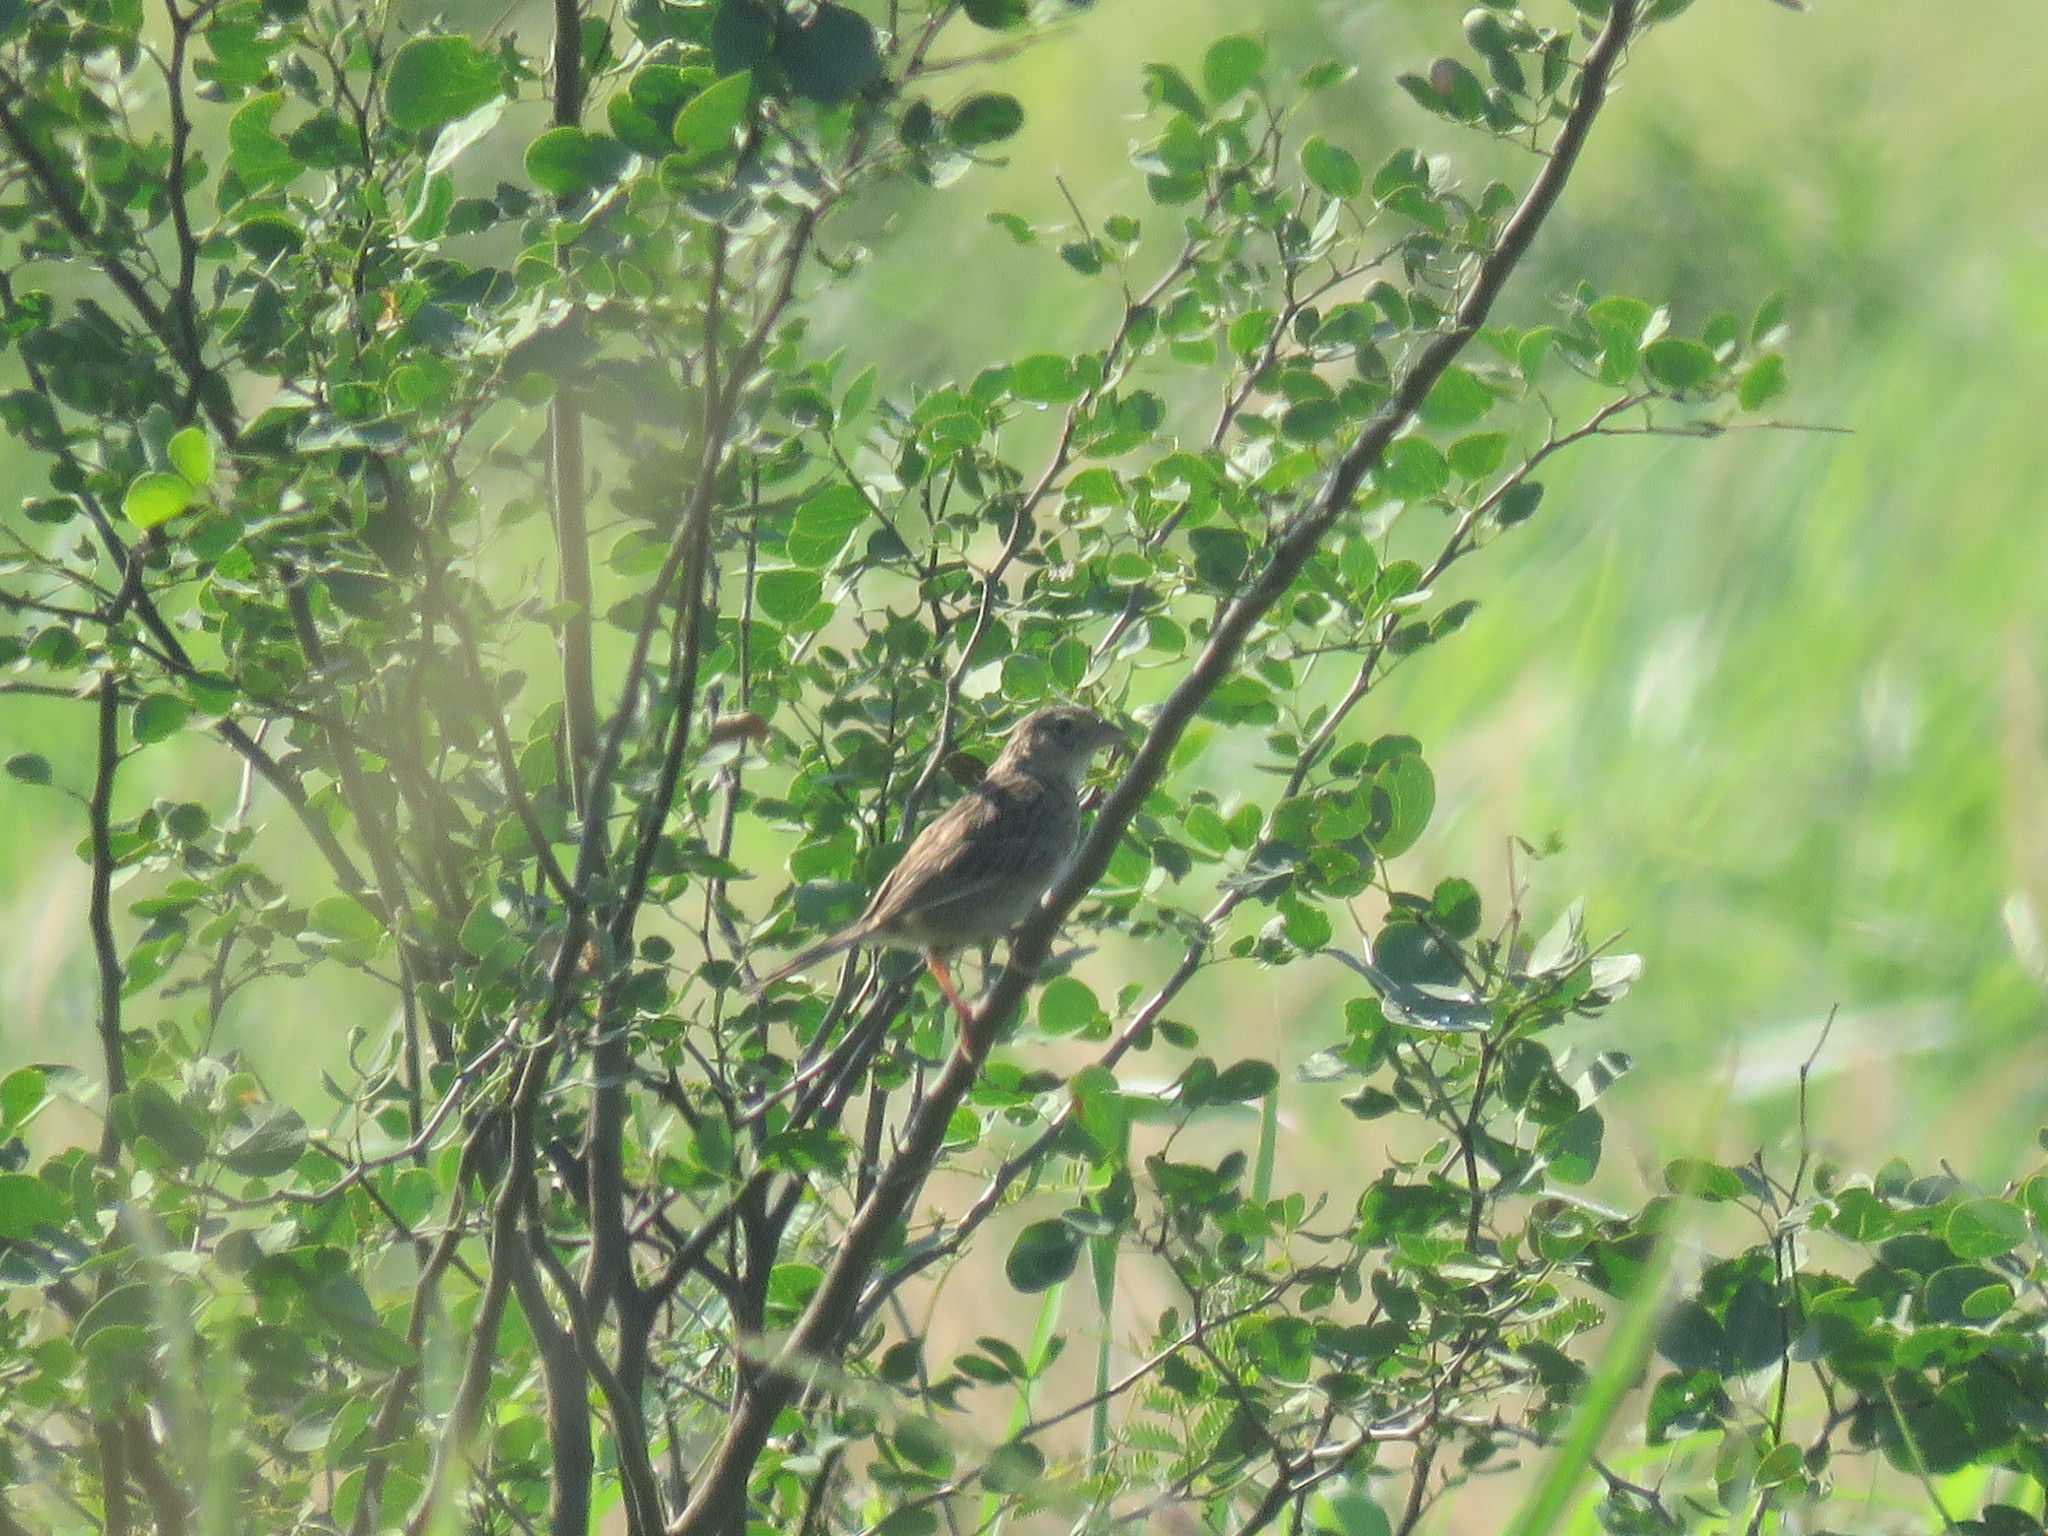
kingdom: Animalia
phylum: Chordata
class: Aves
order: Passeriformes
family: Thraupidae
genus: Volatinia
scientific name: Volatinia jacarina
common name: Blue-black grassquit
